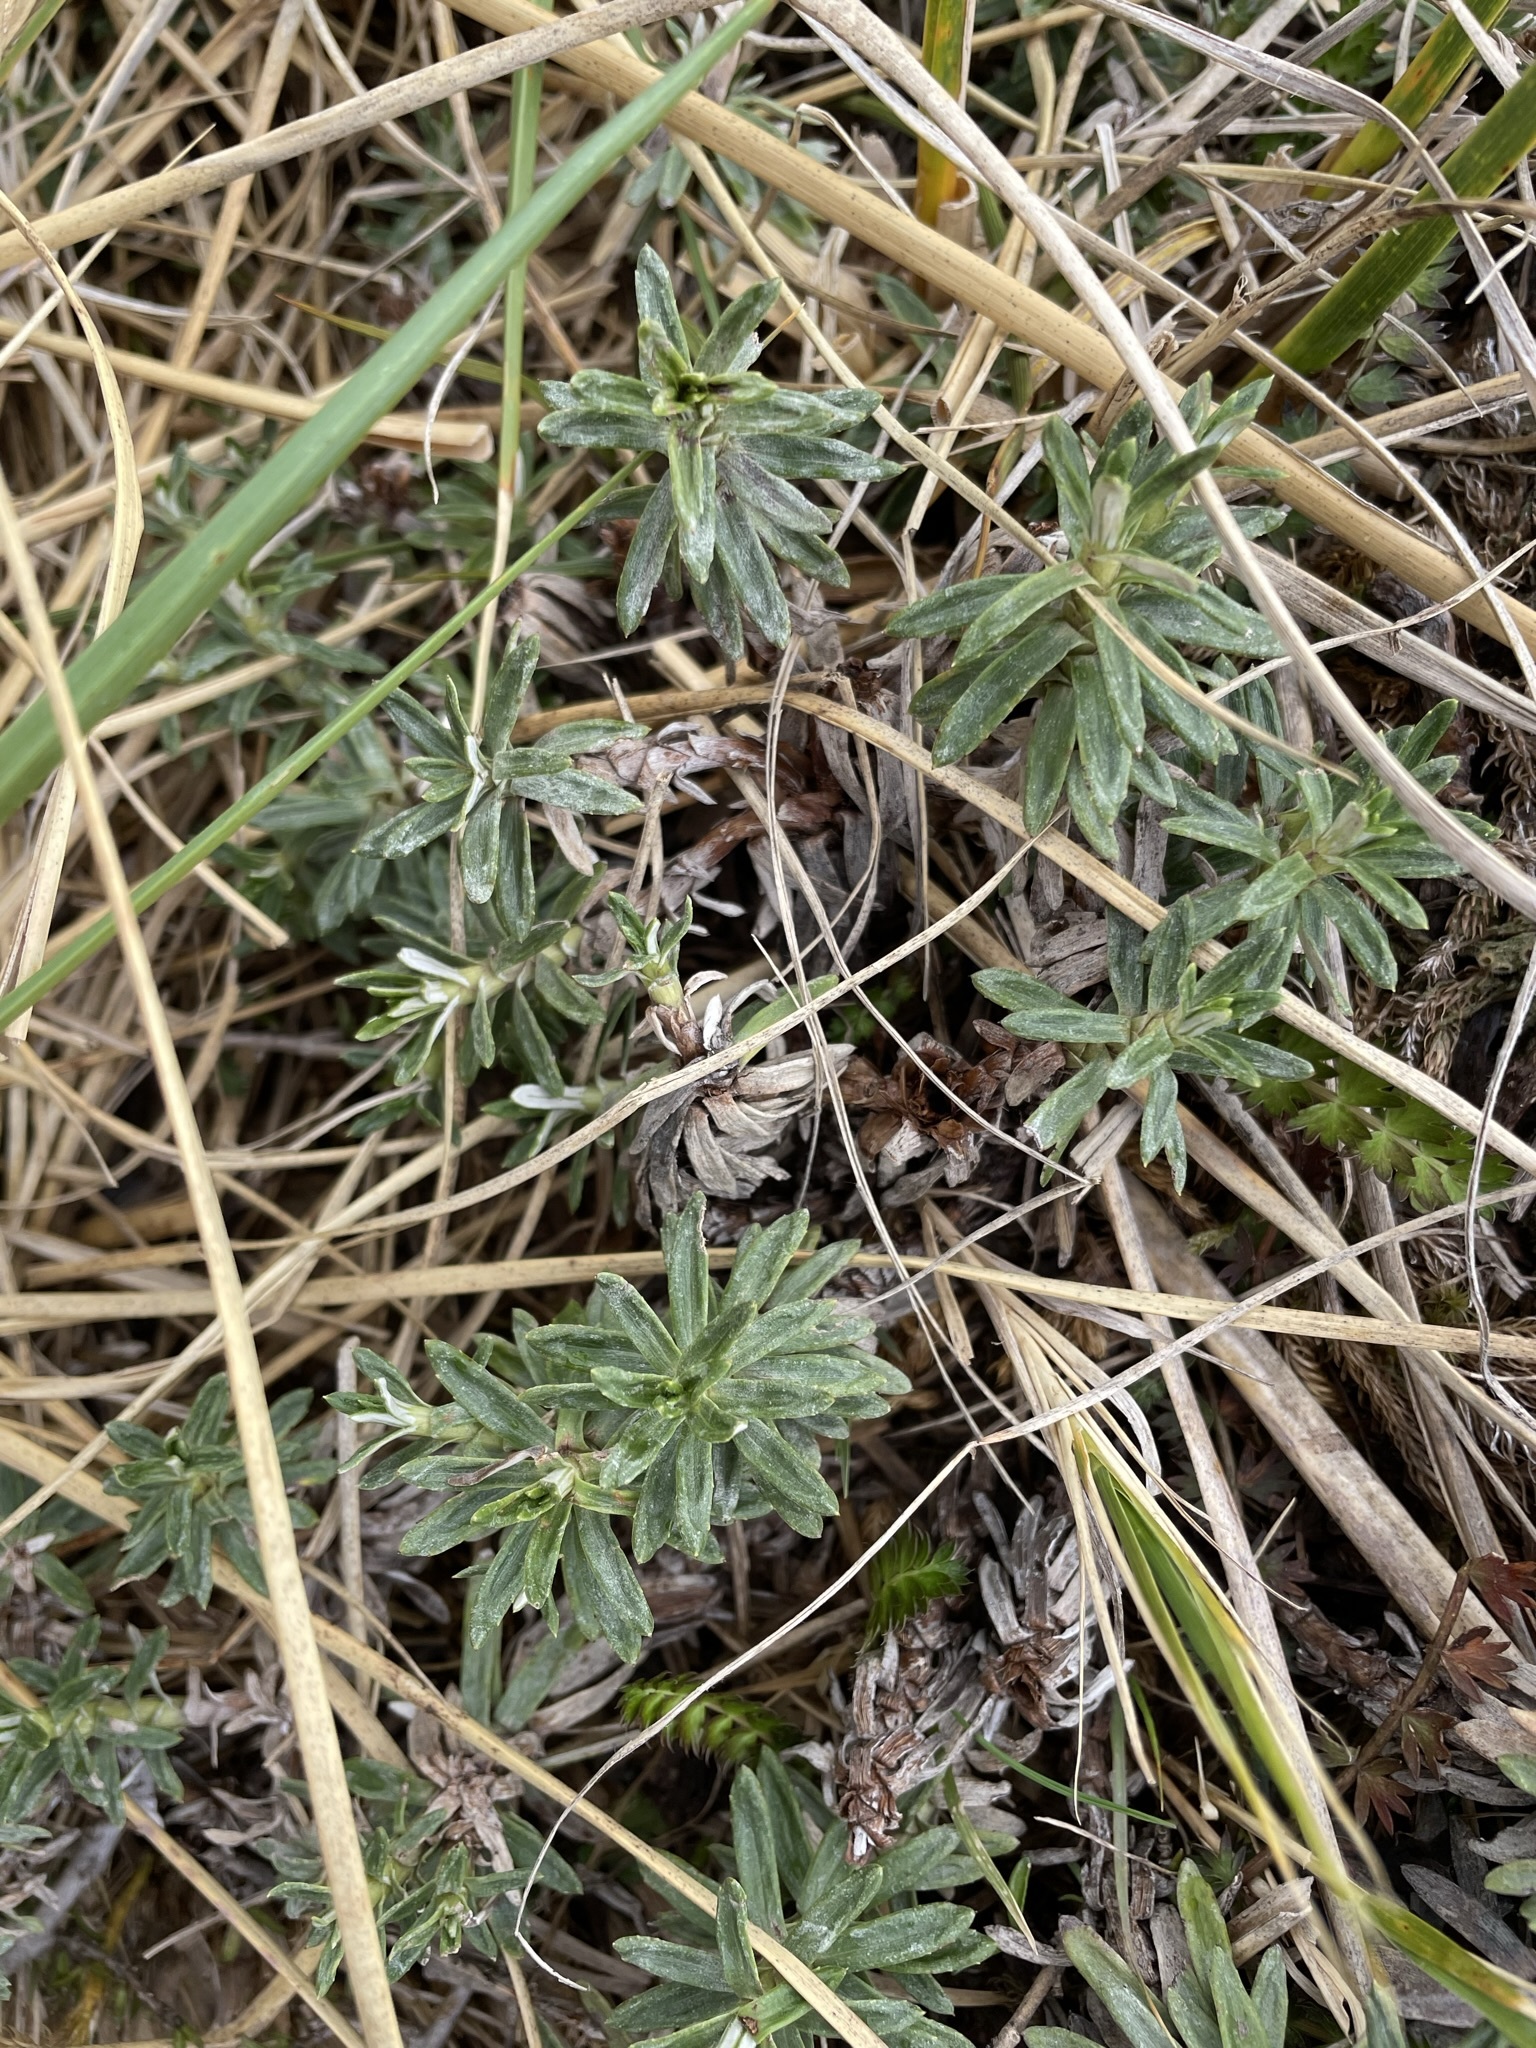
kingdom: Plantae
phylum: Tracheophyta
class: Magnoliopsida
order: Asterales
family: Asteraceae
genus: Celmisia
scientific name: Celmisia walkeri
